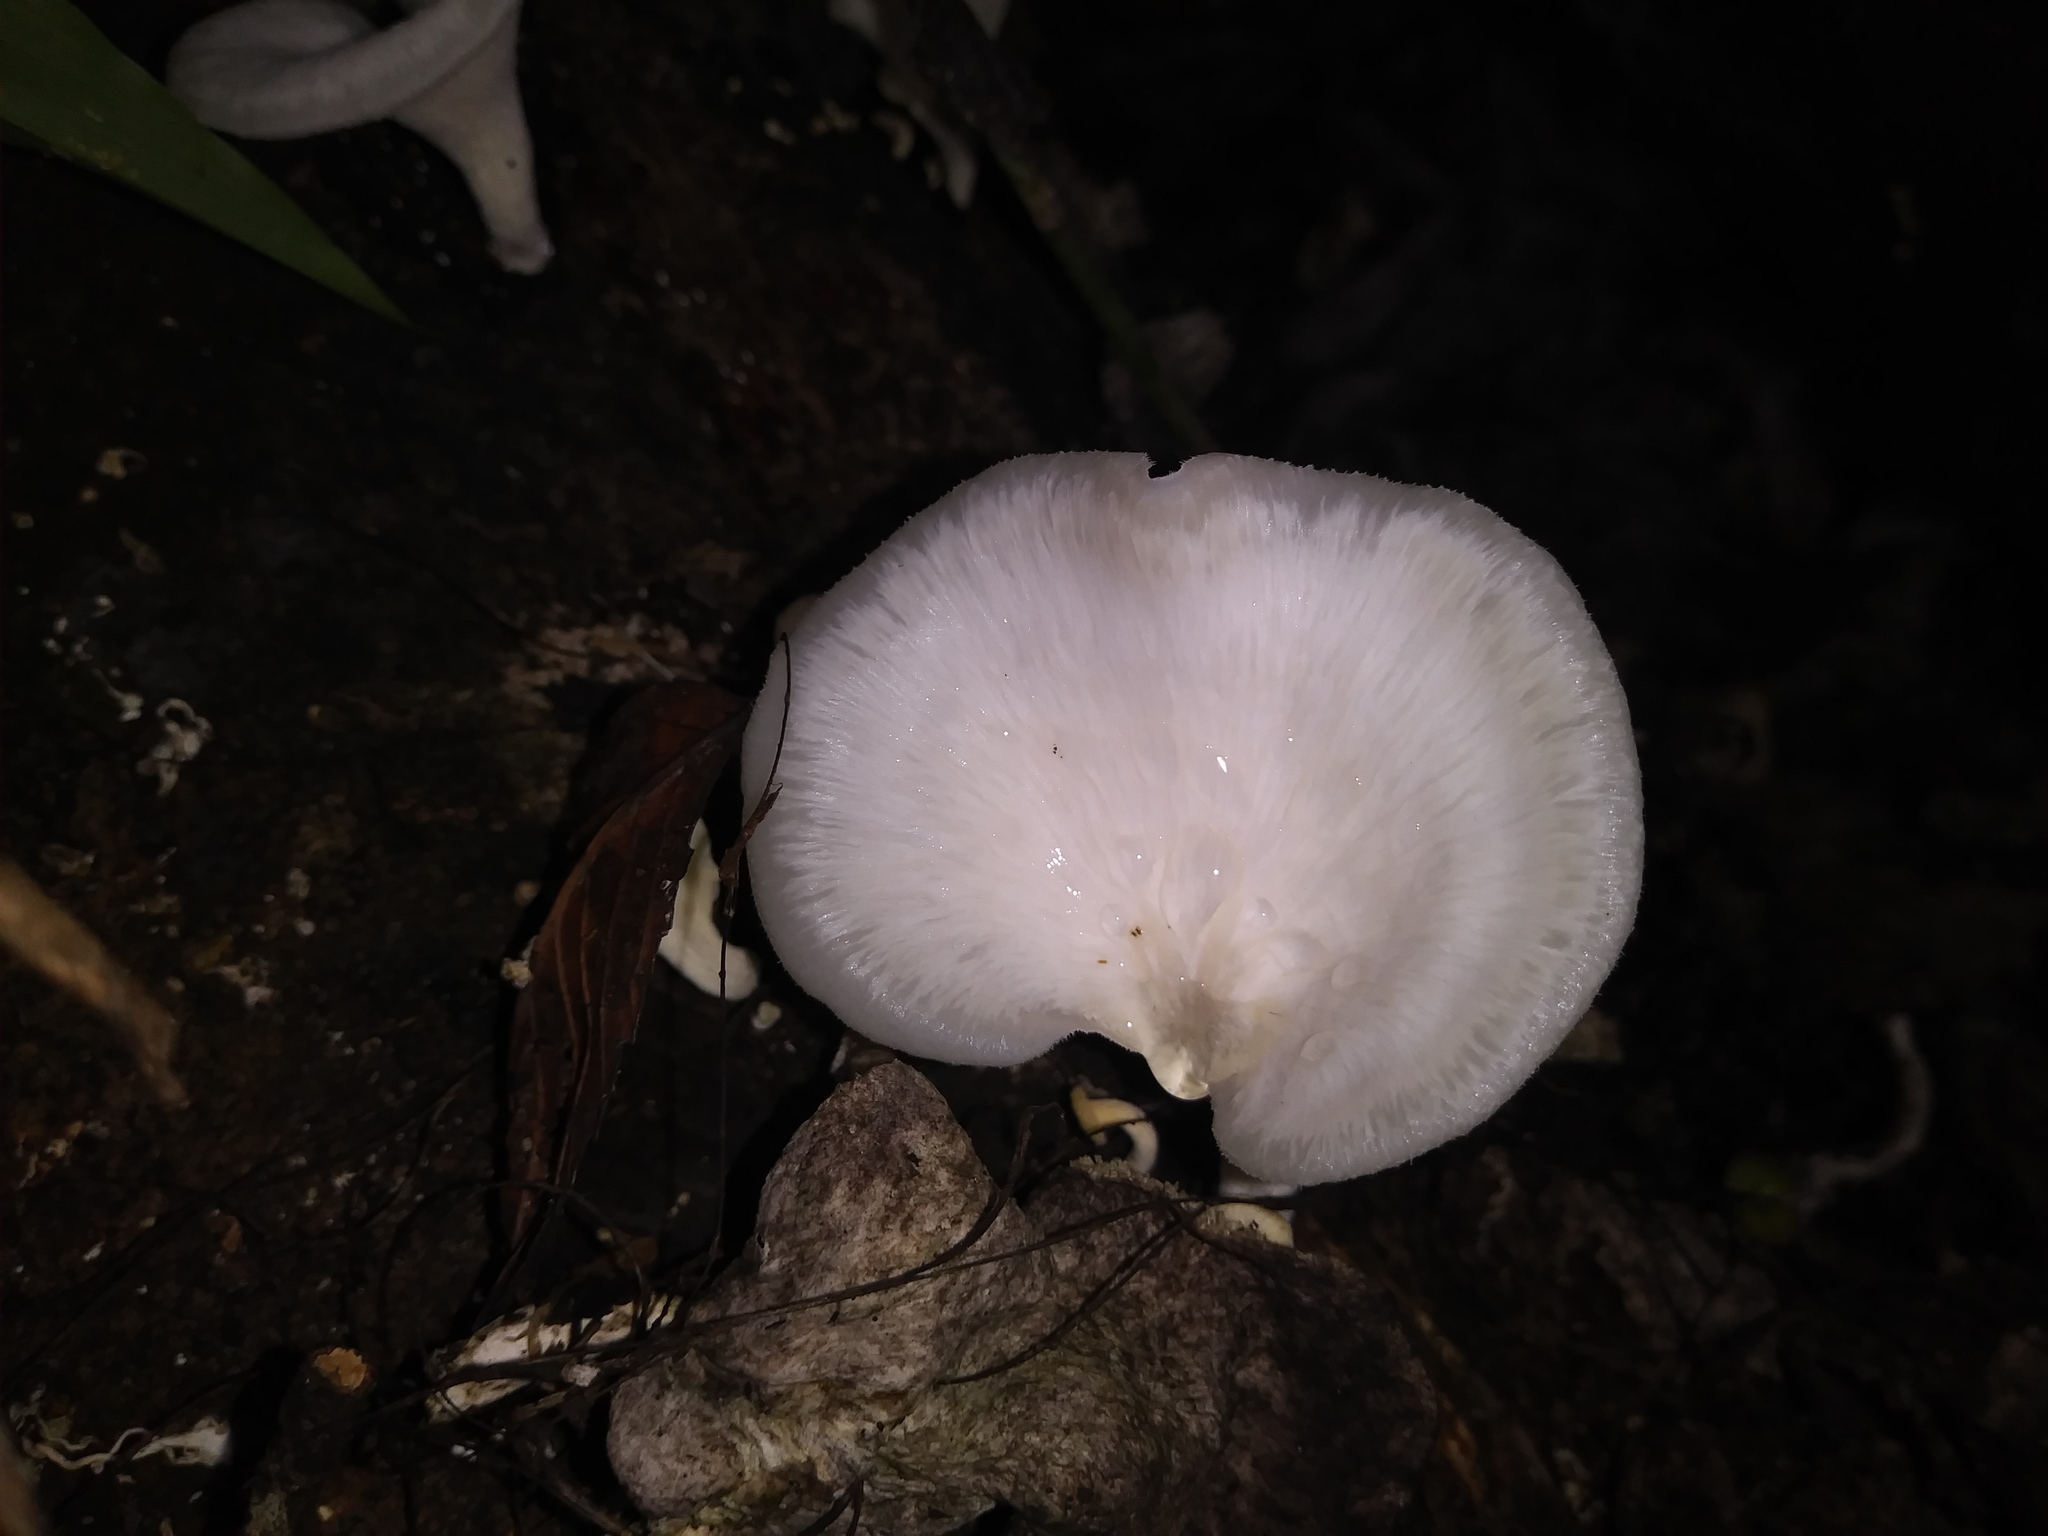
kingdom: Fungi
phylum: Basidiomycota
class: Agaricomycetes
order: Polyporales
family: Polyporaceae
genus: Favolus
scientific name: Favolus tenuiculus
